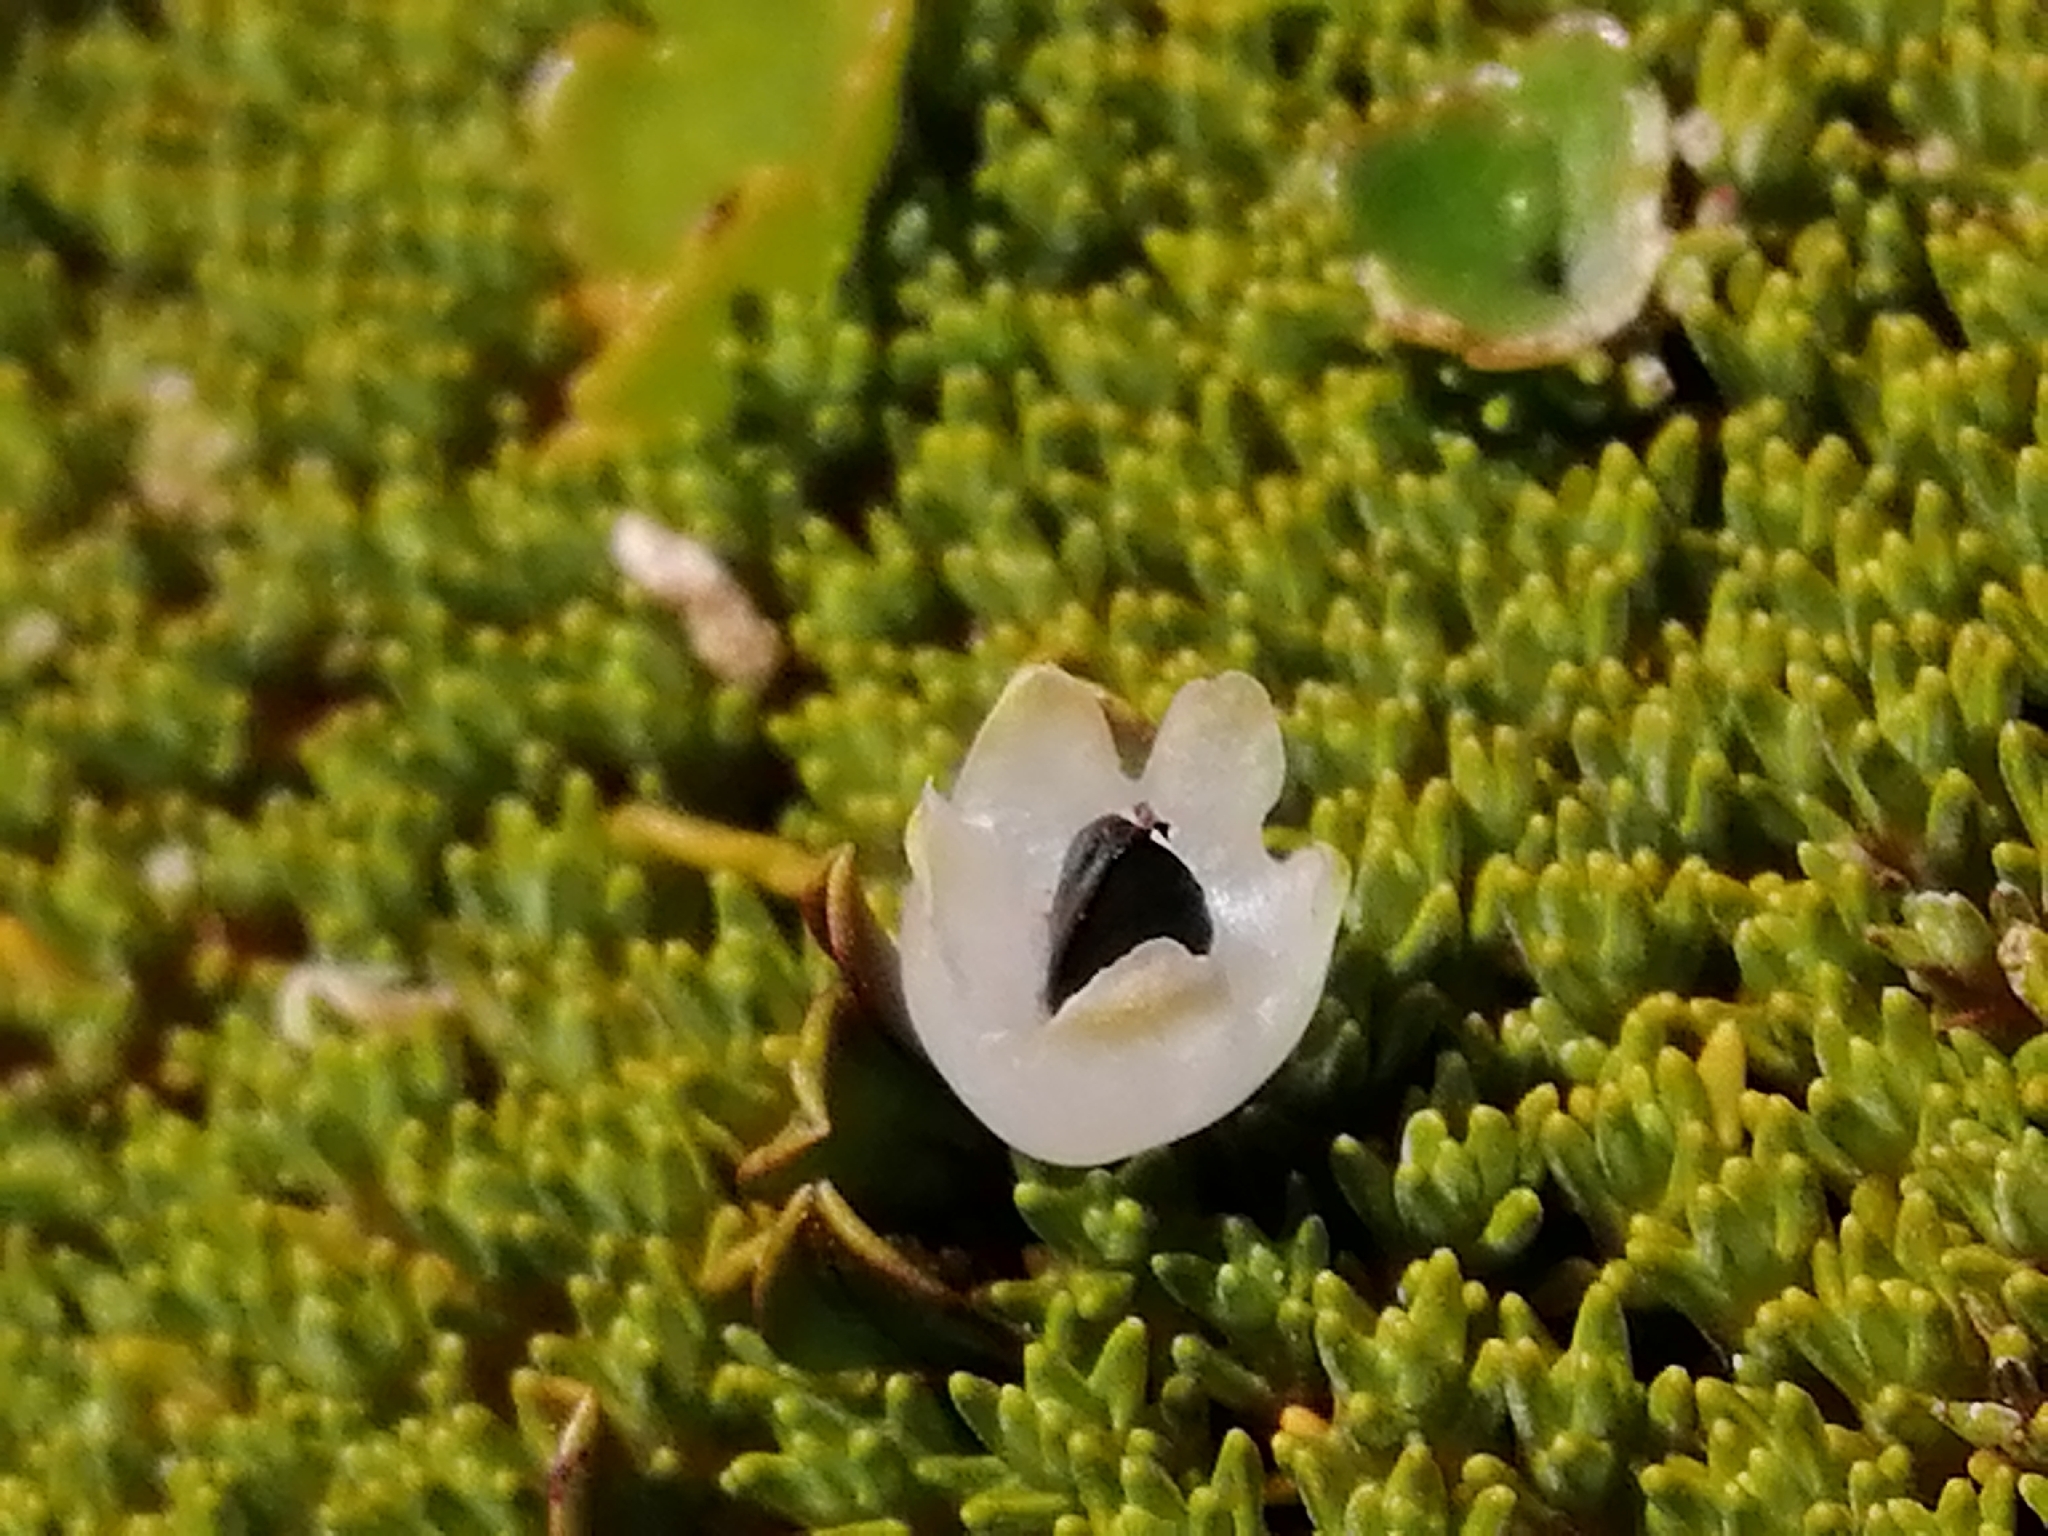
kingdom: Plantae
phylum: Tracheophyta
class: Magnoliopsida
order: Caryophyllales
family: Polygonaceae
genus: Muehlenbeckia
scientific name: Muehlenbeckia axillaris
